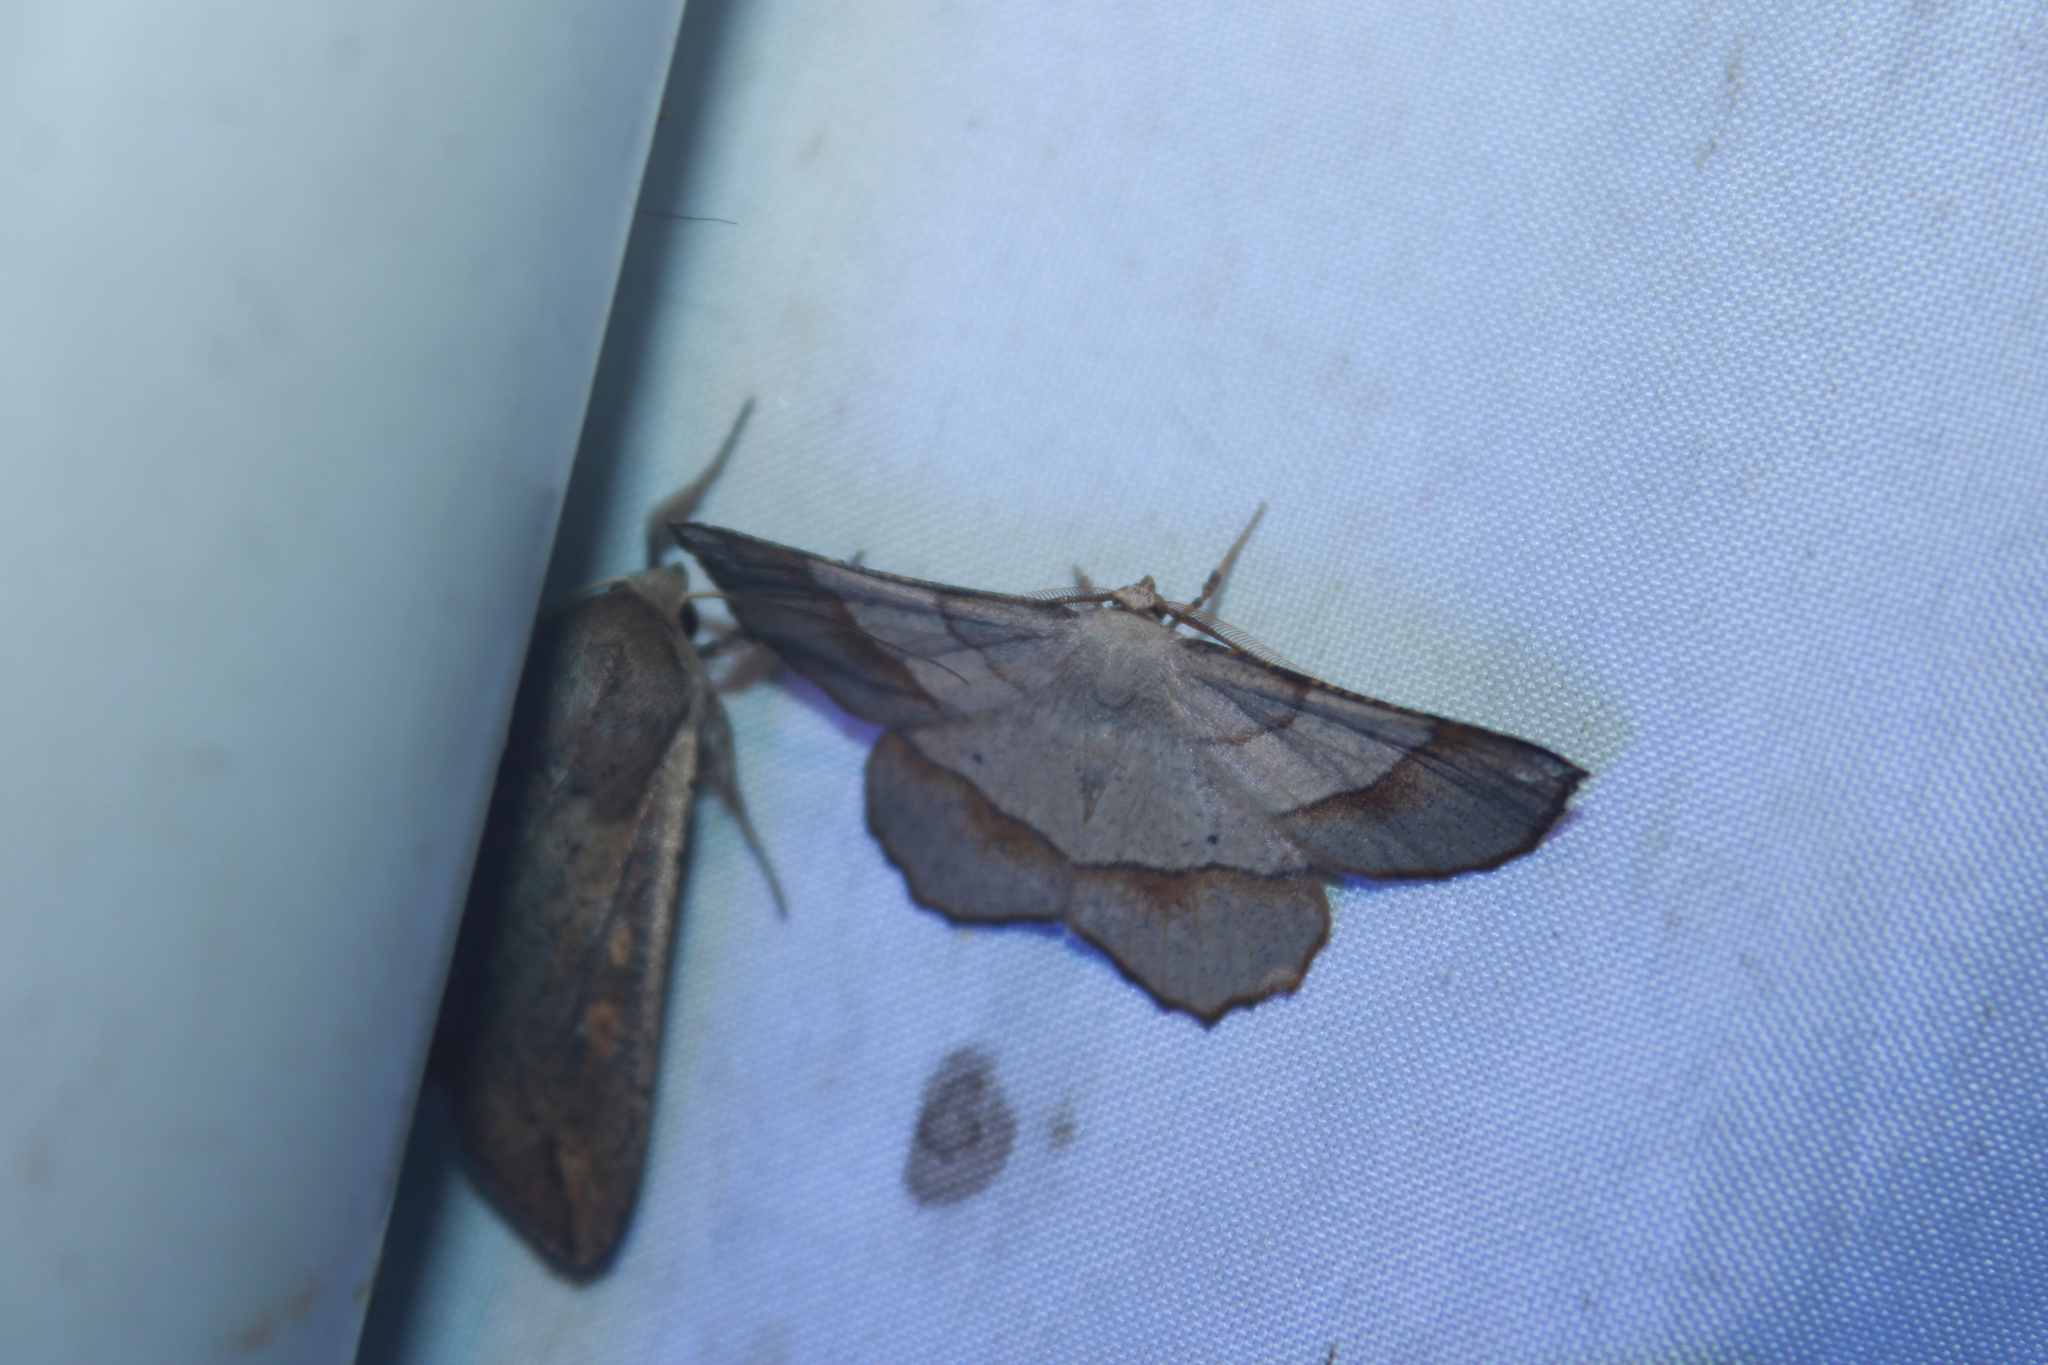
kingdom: Animalia
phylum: Arthropoda
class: Insecta
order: Lepidoptera
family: Geometridae
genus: Euchlaena
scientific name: Euchlaena madusaria
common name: Scrub euchlaena moth
